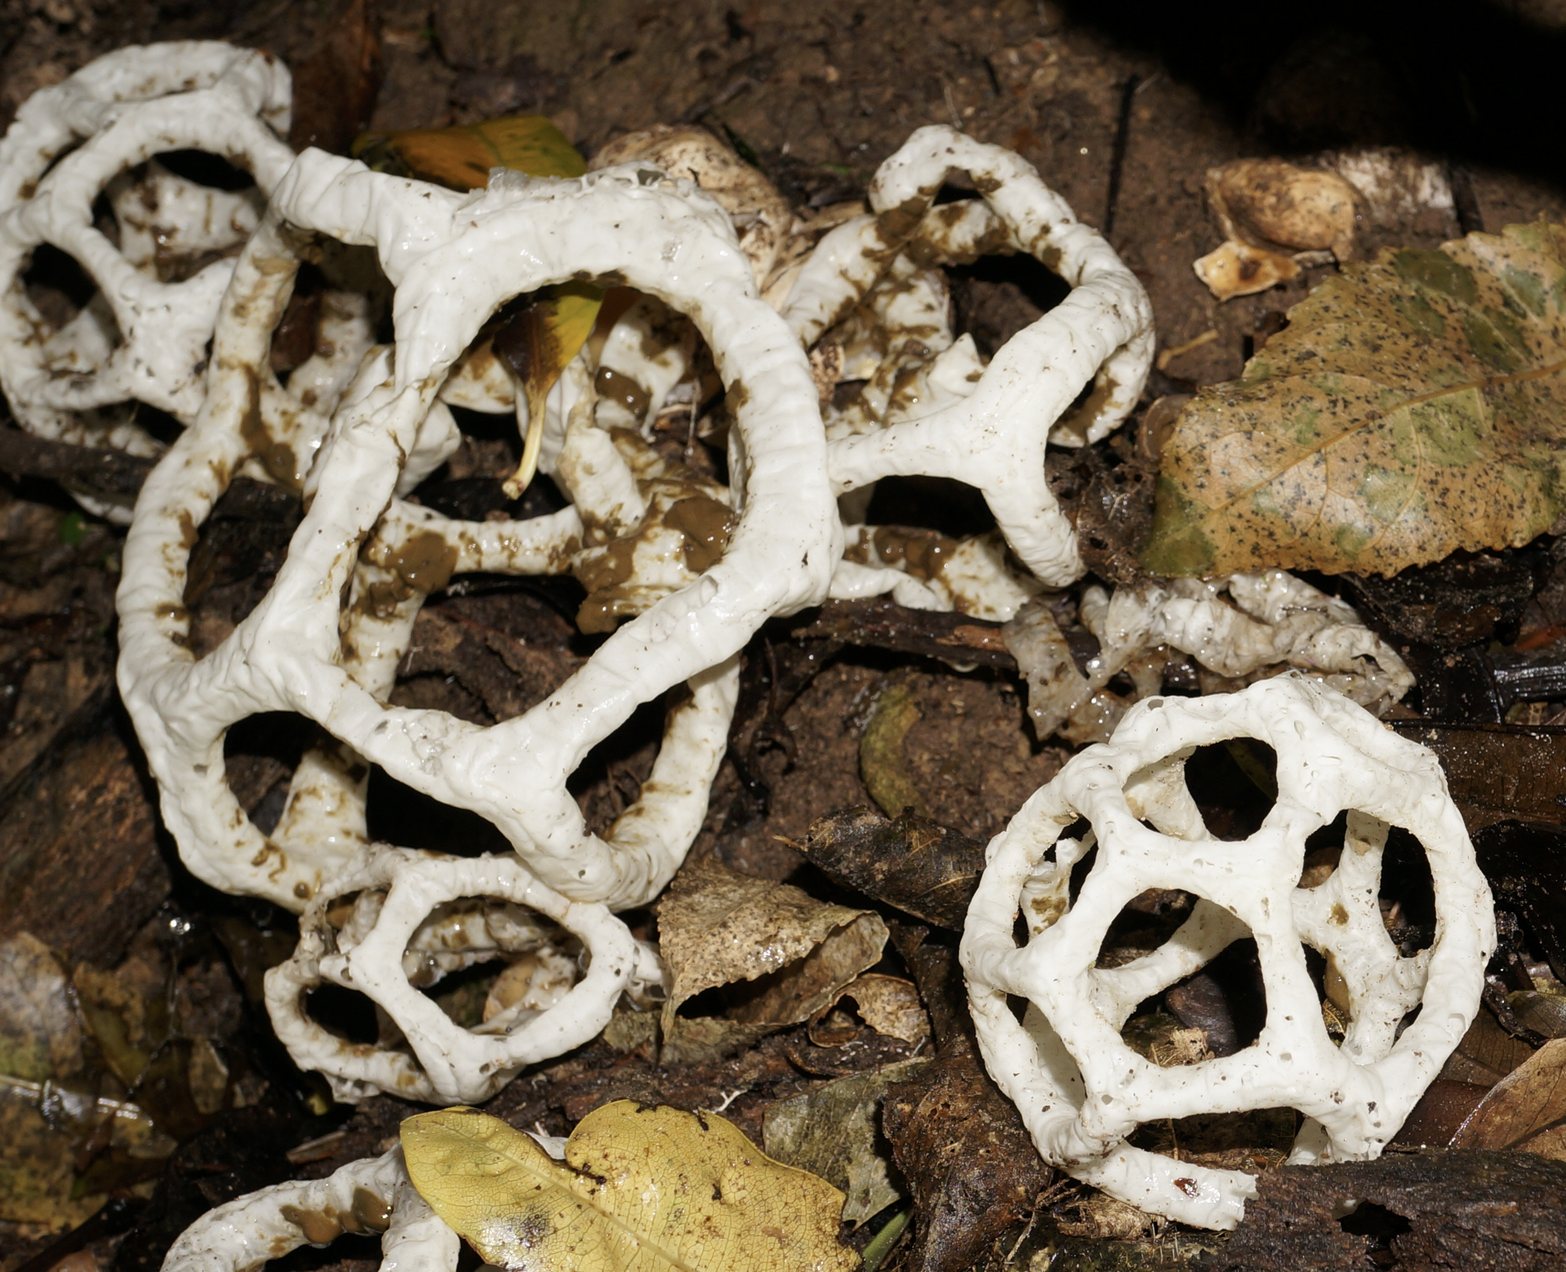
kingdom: Fungi
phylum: Basidiomycota
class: Agaricomycetes
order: Phallales
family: Phallaceae
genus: Ileodictyon
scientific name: Ileodictyon cibarium
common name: Basket fungus
